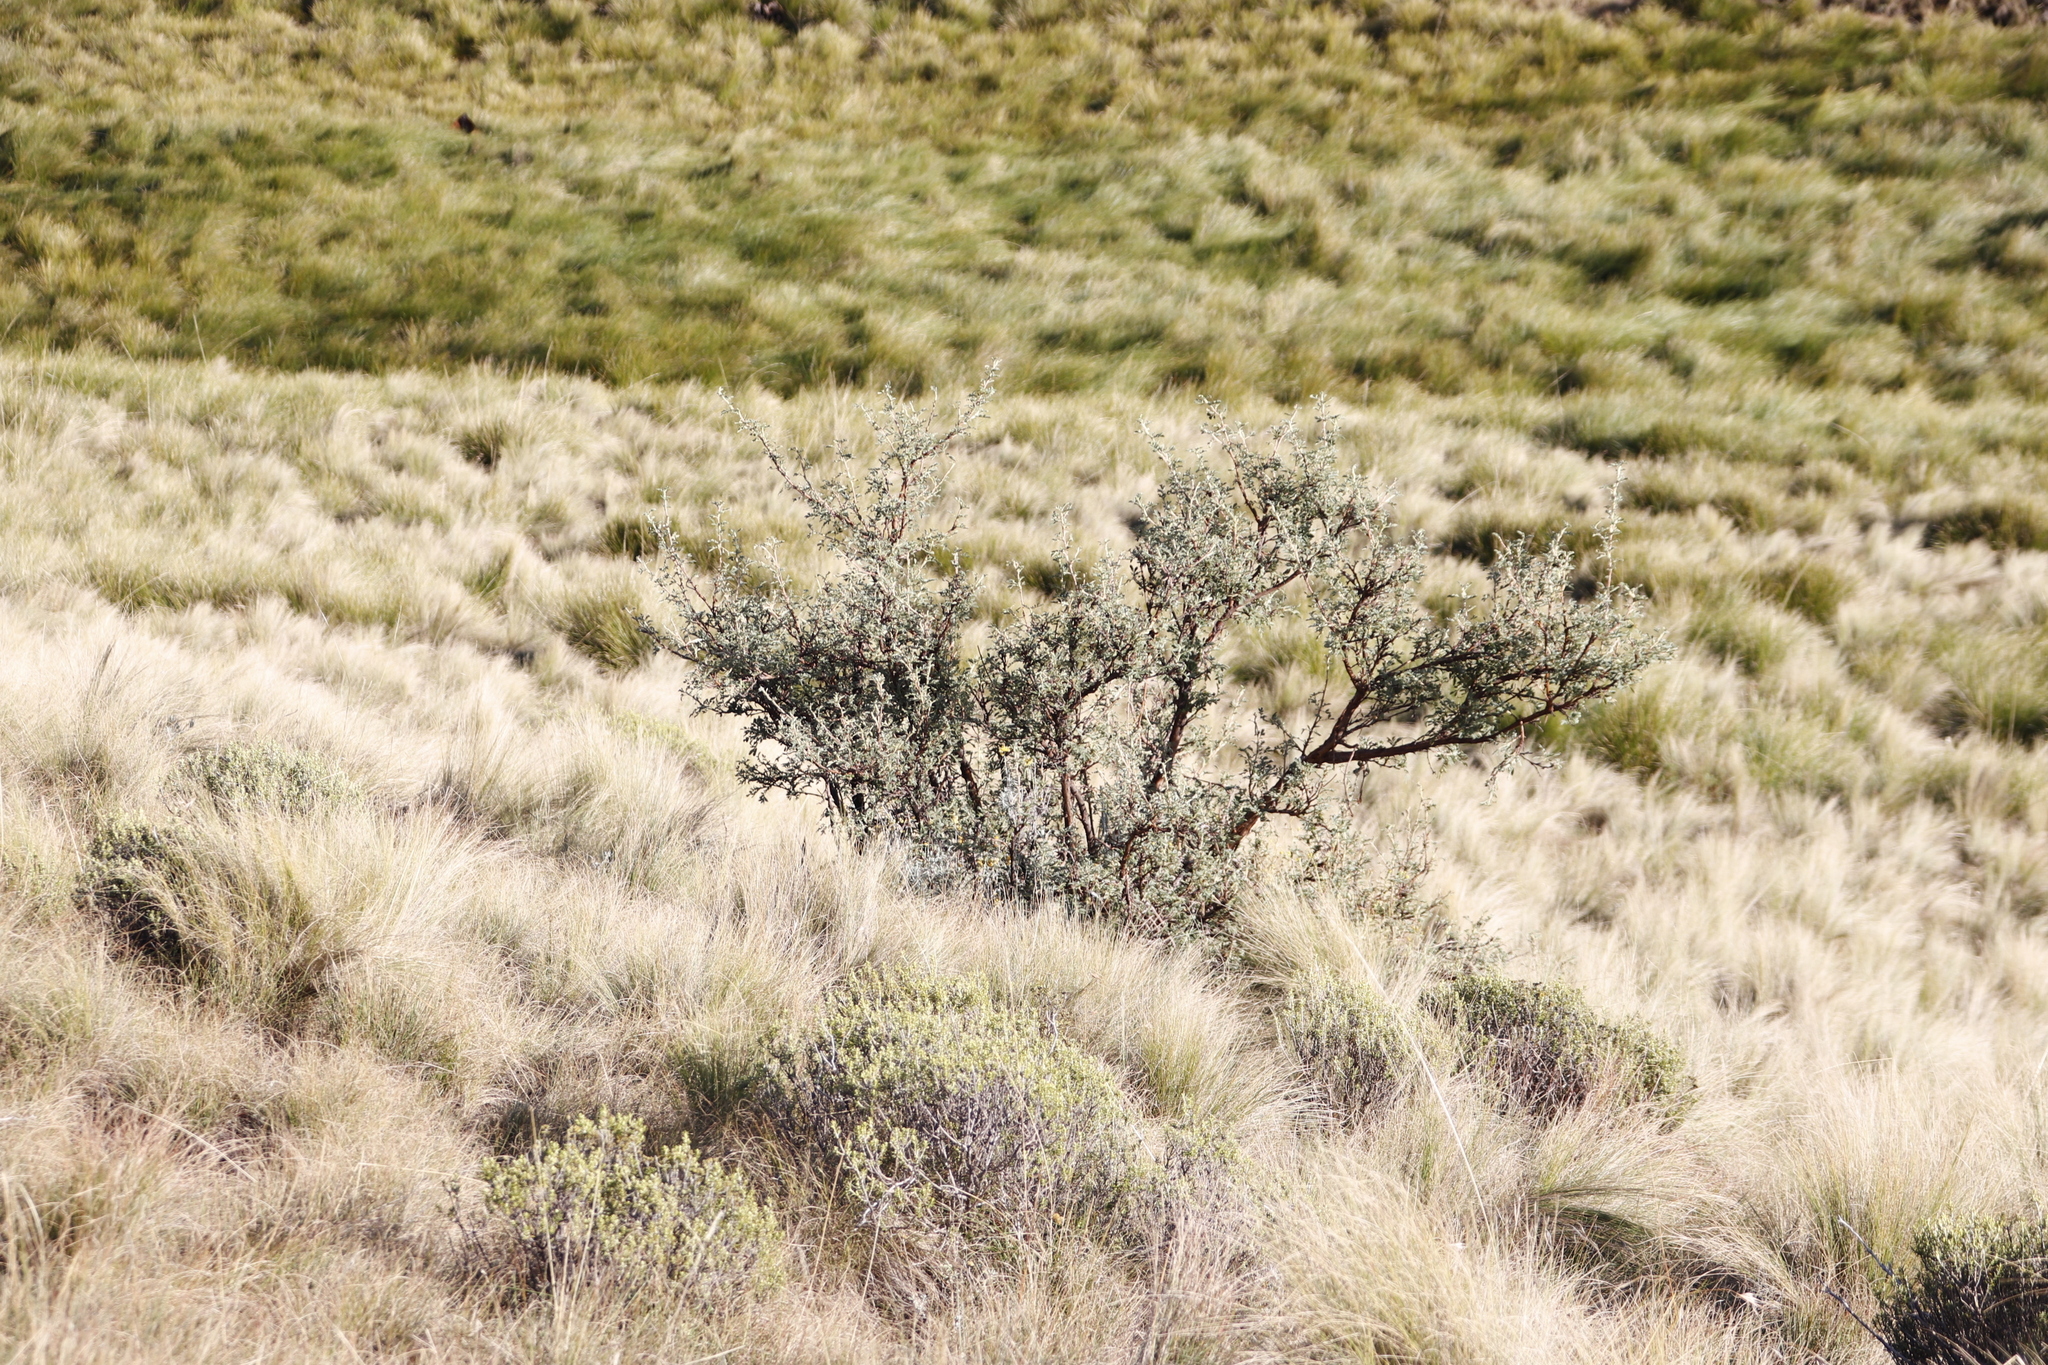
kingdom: Plantae
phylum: Tracheophyta
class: Magnoliopsida
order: Rosales
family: Rosaceae
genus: Leucosidea
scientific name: Leucosidea sericea
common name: Oldwood
